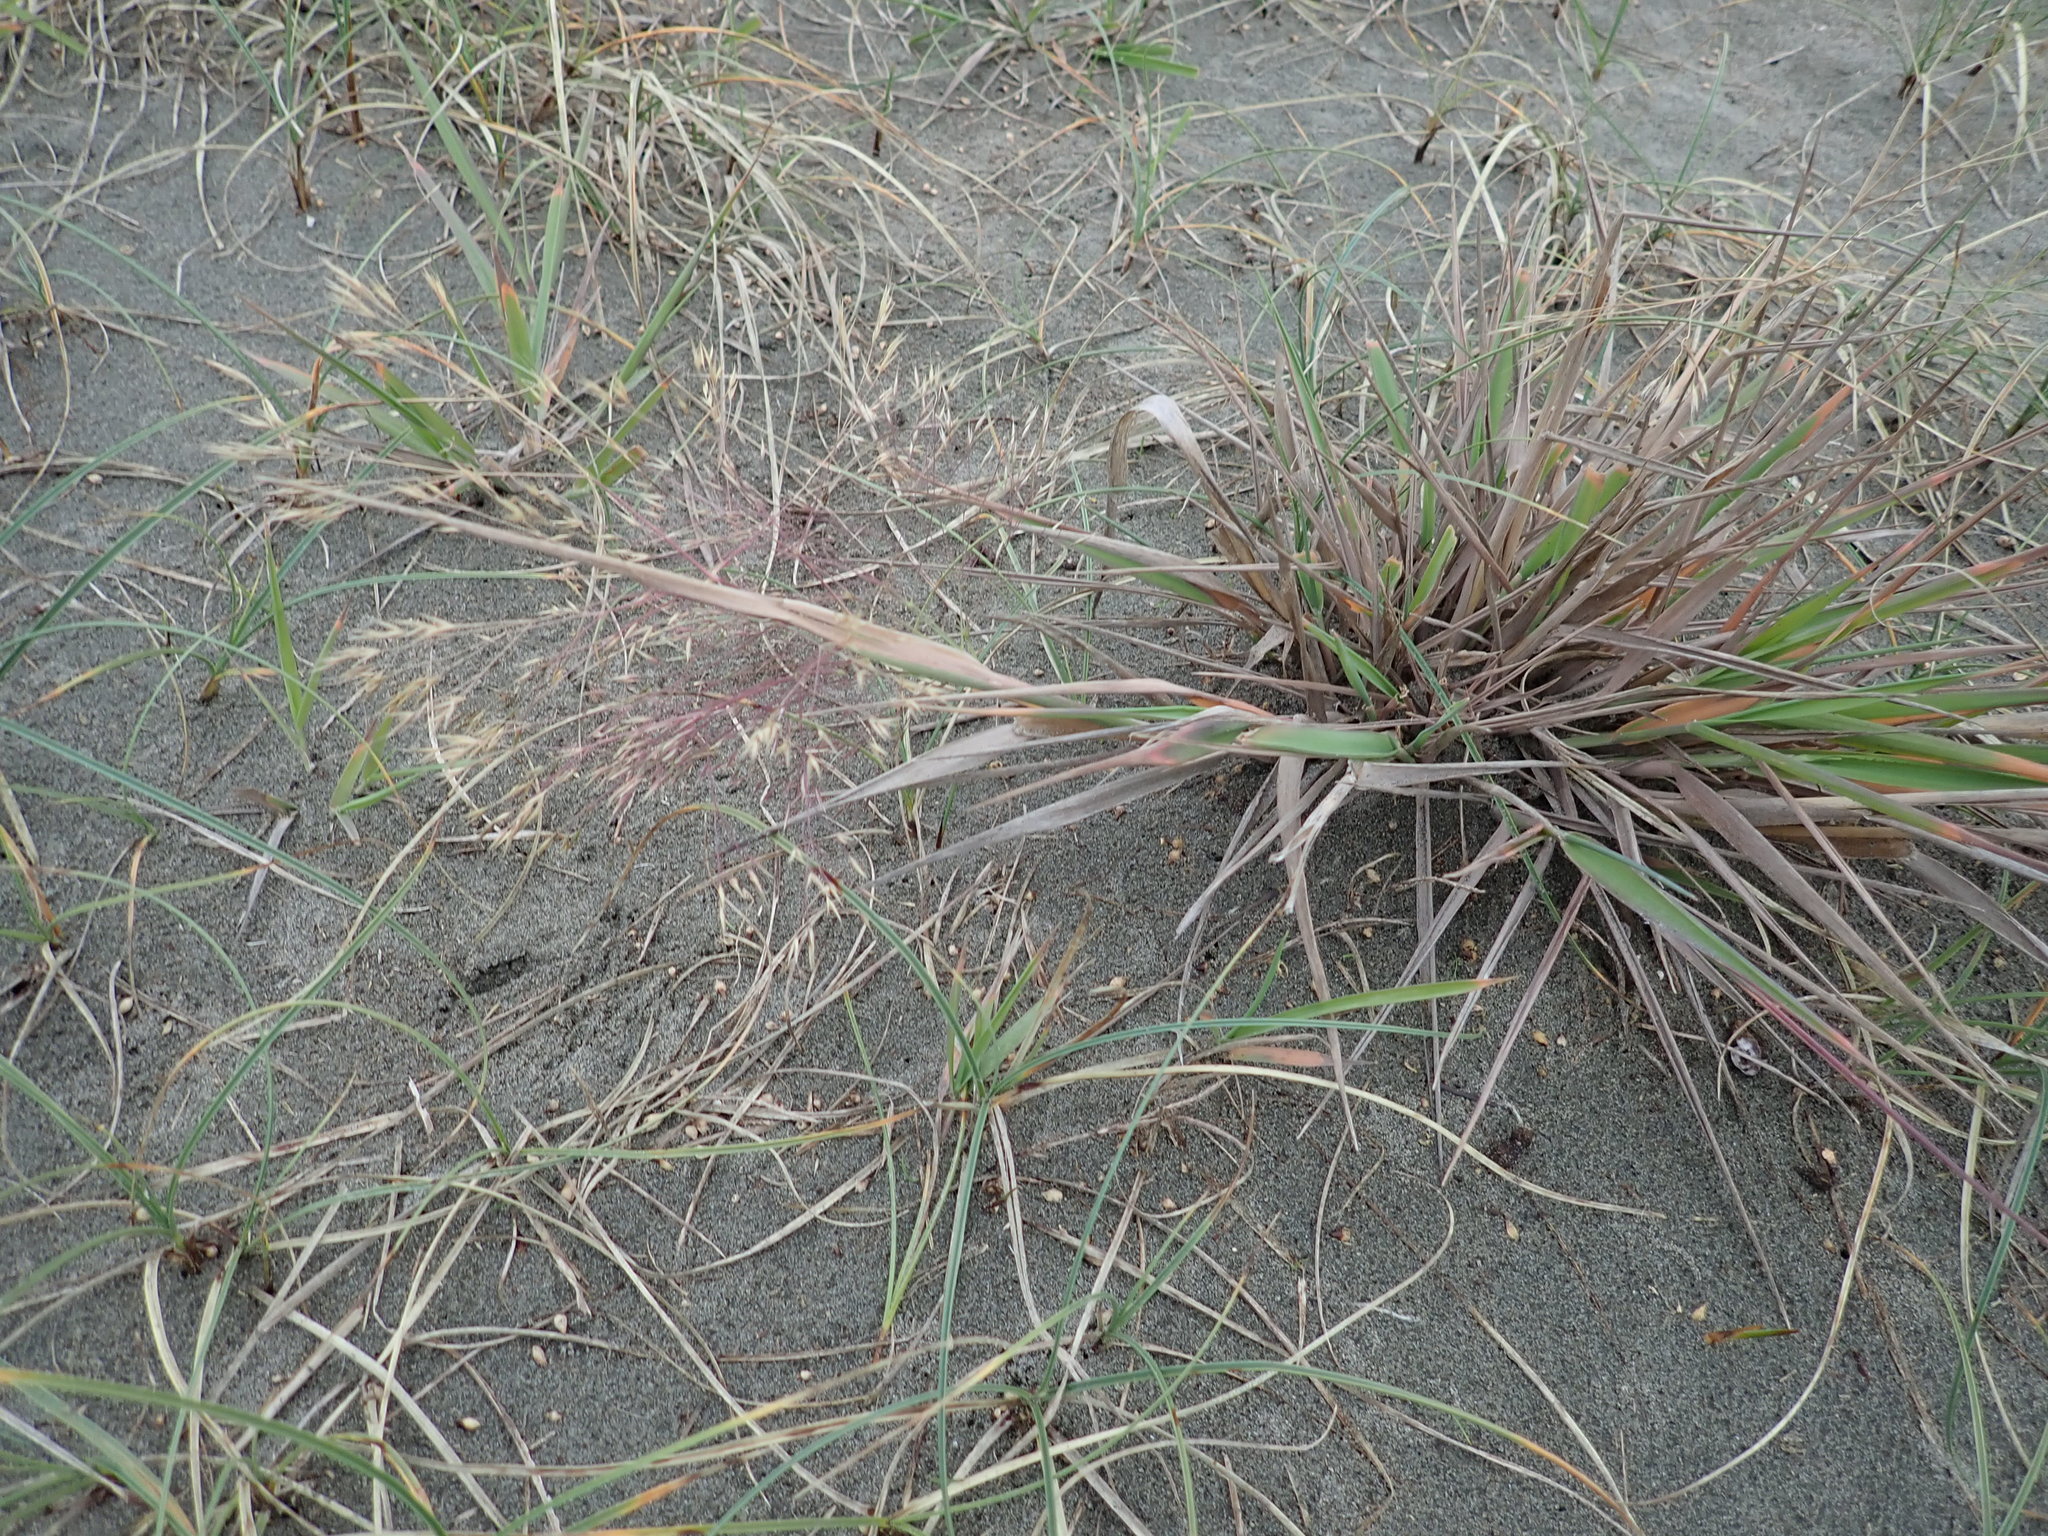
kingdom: Plantae
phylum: Tracheophyta
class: Liliopsida
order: Poales
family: Poaceae
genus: Lachnagrostis
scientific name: Lachnagrostis billardierei
